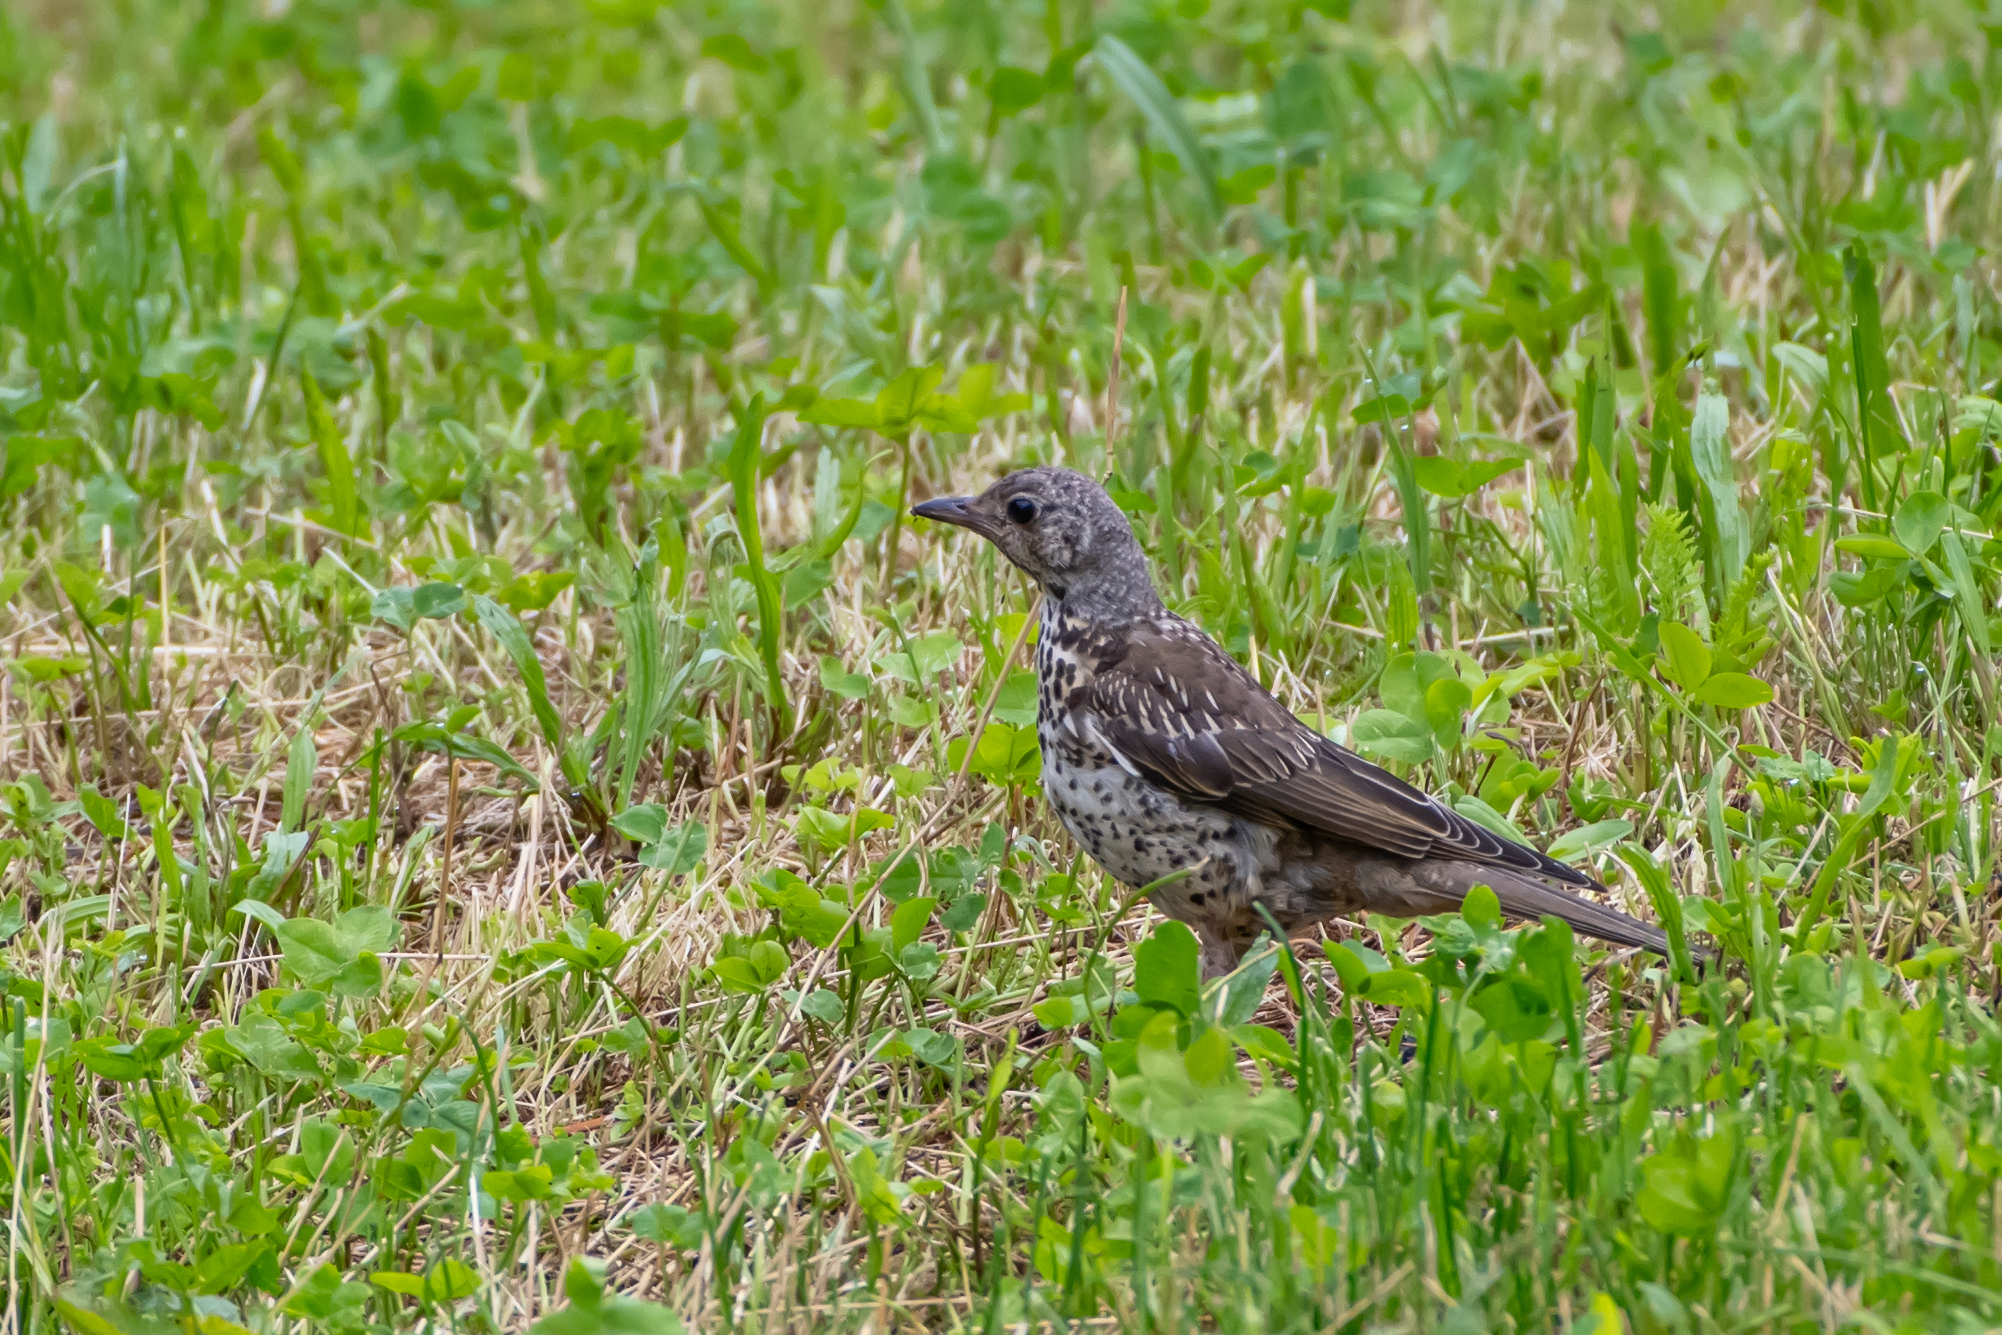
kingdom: Animalia
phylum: Chordata
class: Aves
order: Passeriformes
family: Turdidae
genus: Turdus
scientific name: Turdus viscivorus
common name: Mistle thrush
